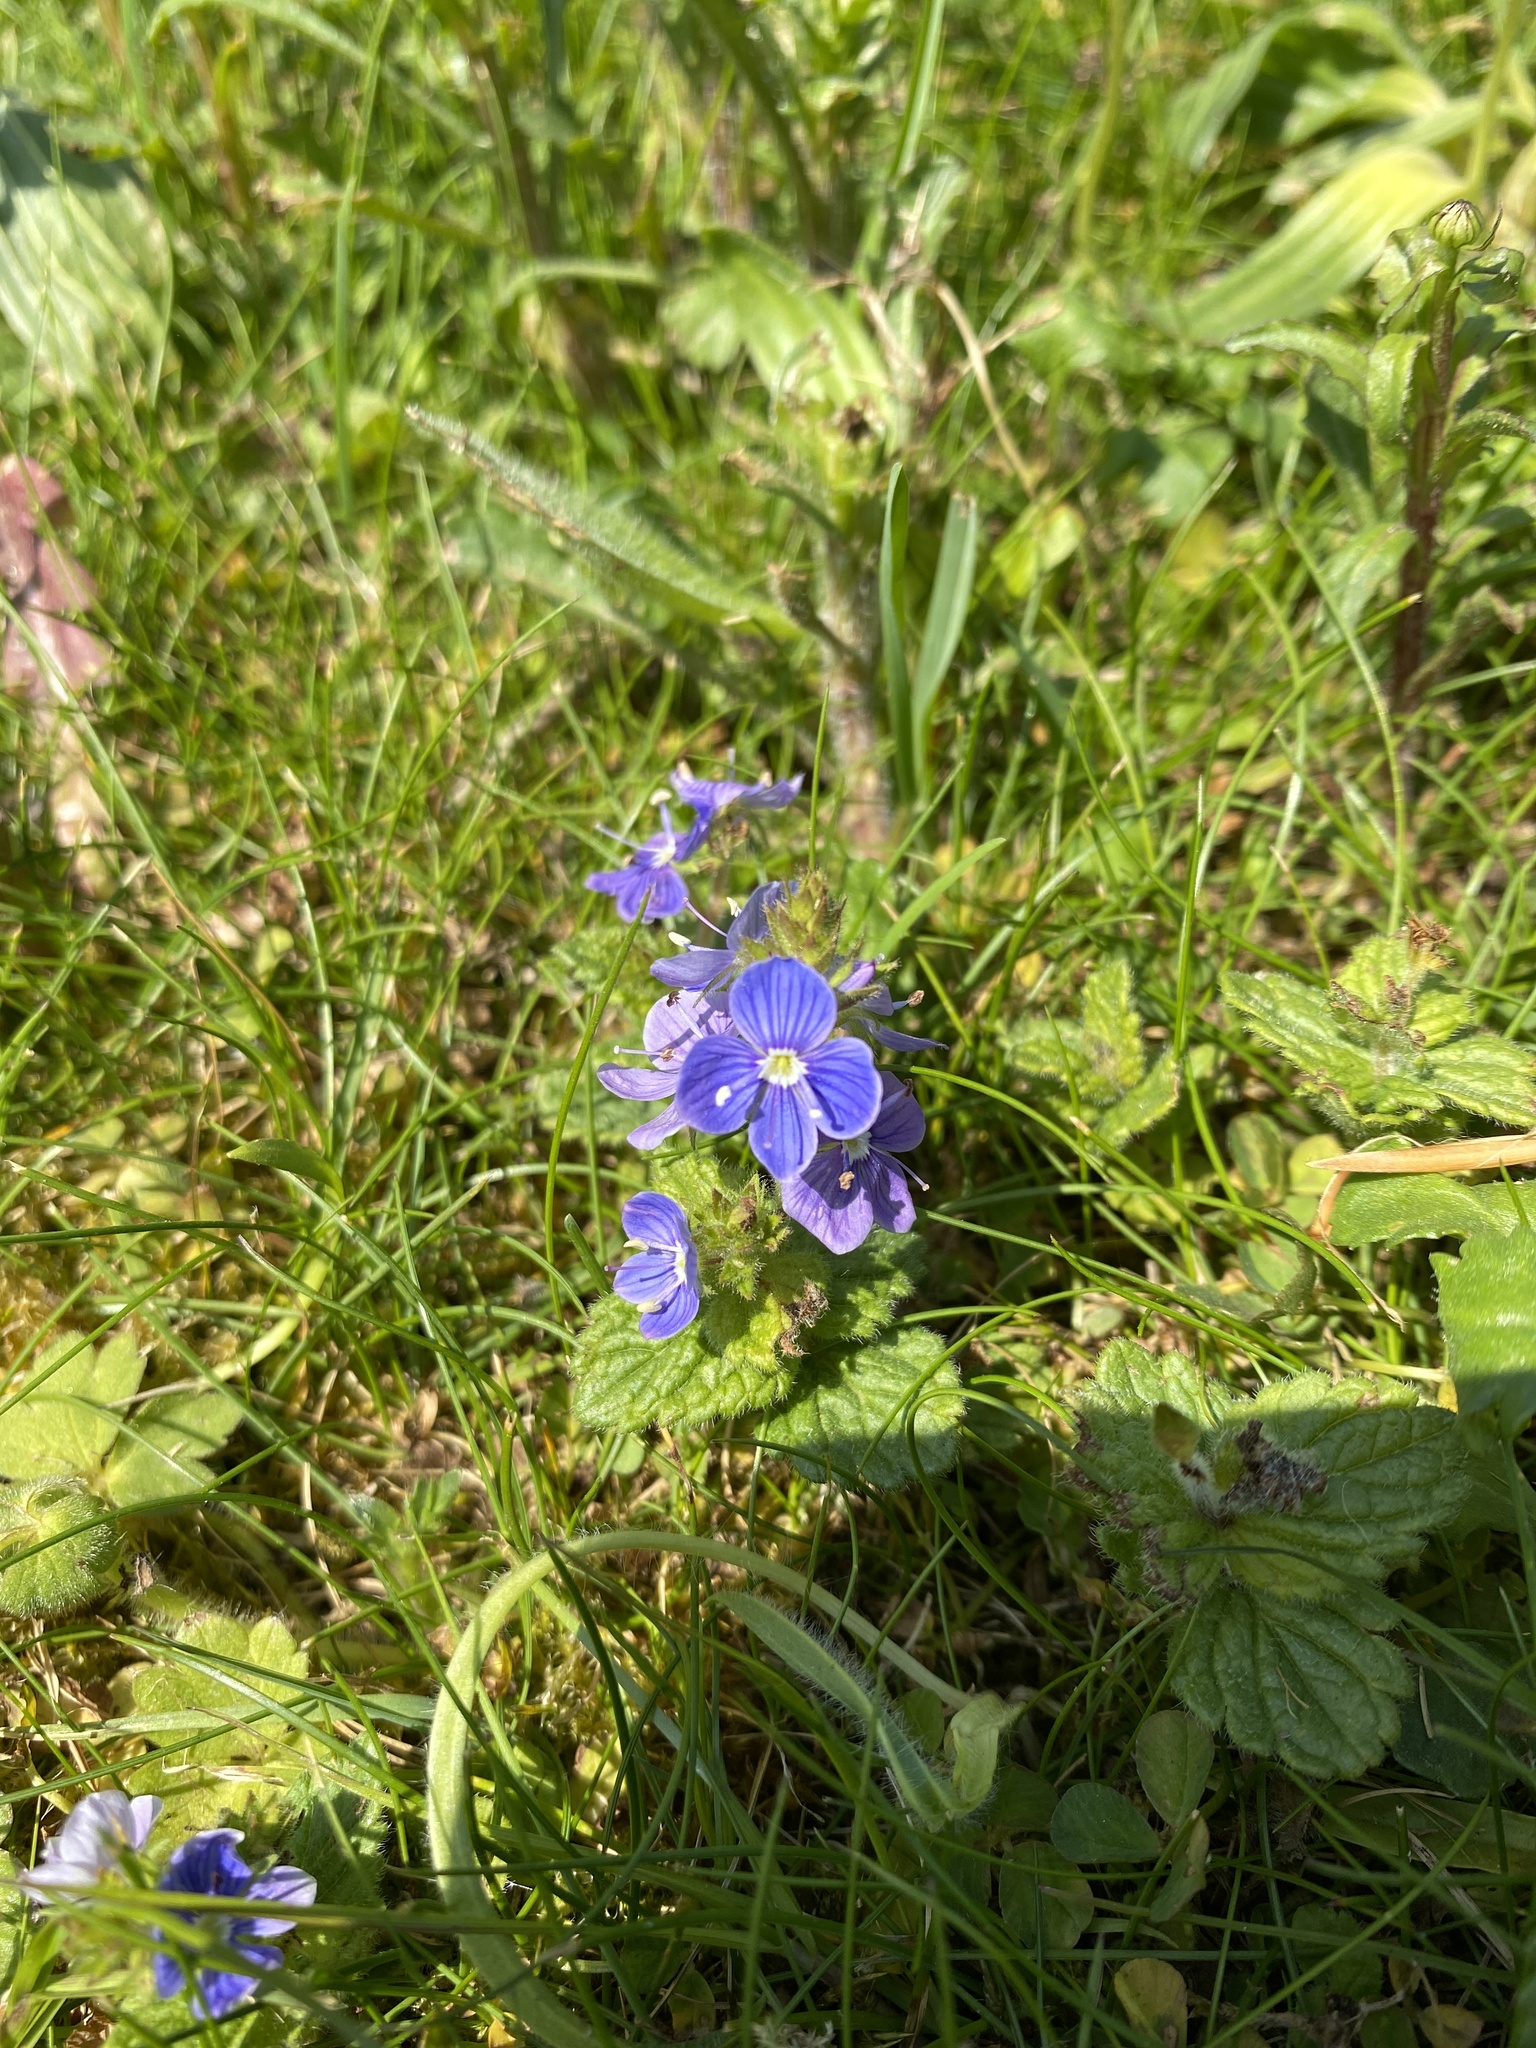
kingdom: Plantae
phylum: Tracheophyta
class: Magnoliopsida
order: Lamiales
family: Plantaginaceae
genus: Veronica
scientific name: Veronica chamaedrys
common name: Germander speedwell
